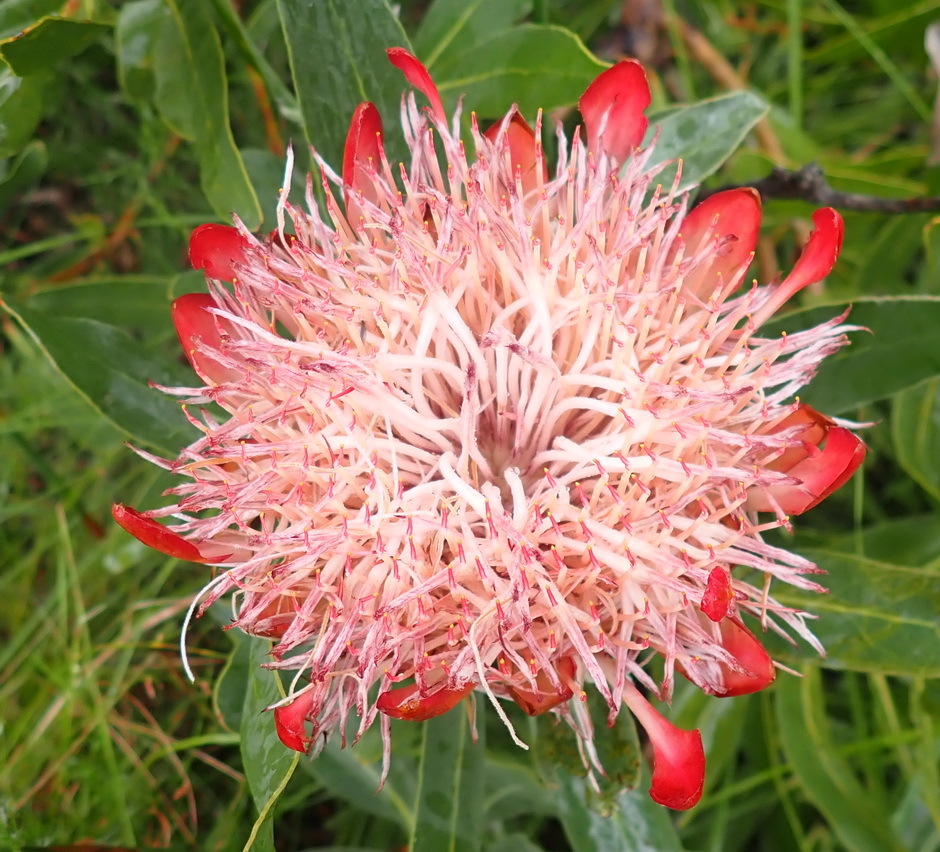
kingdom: Plantae
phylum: Tracheophyta
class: Magnoliopsida
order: Proteales
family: Proteaceae
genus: Protea
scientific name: Protea susannae
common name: Foetid-leaf sugarbush
